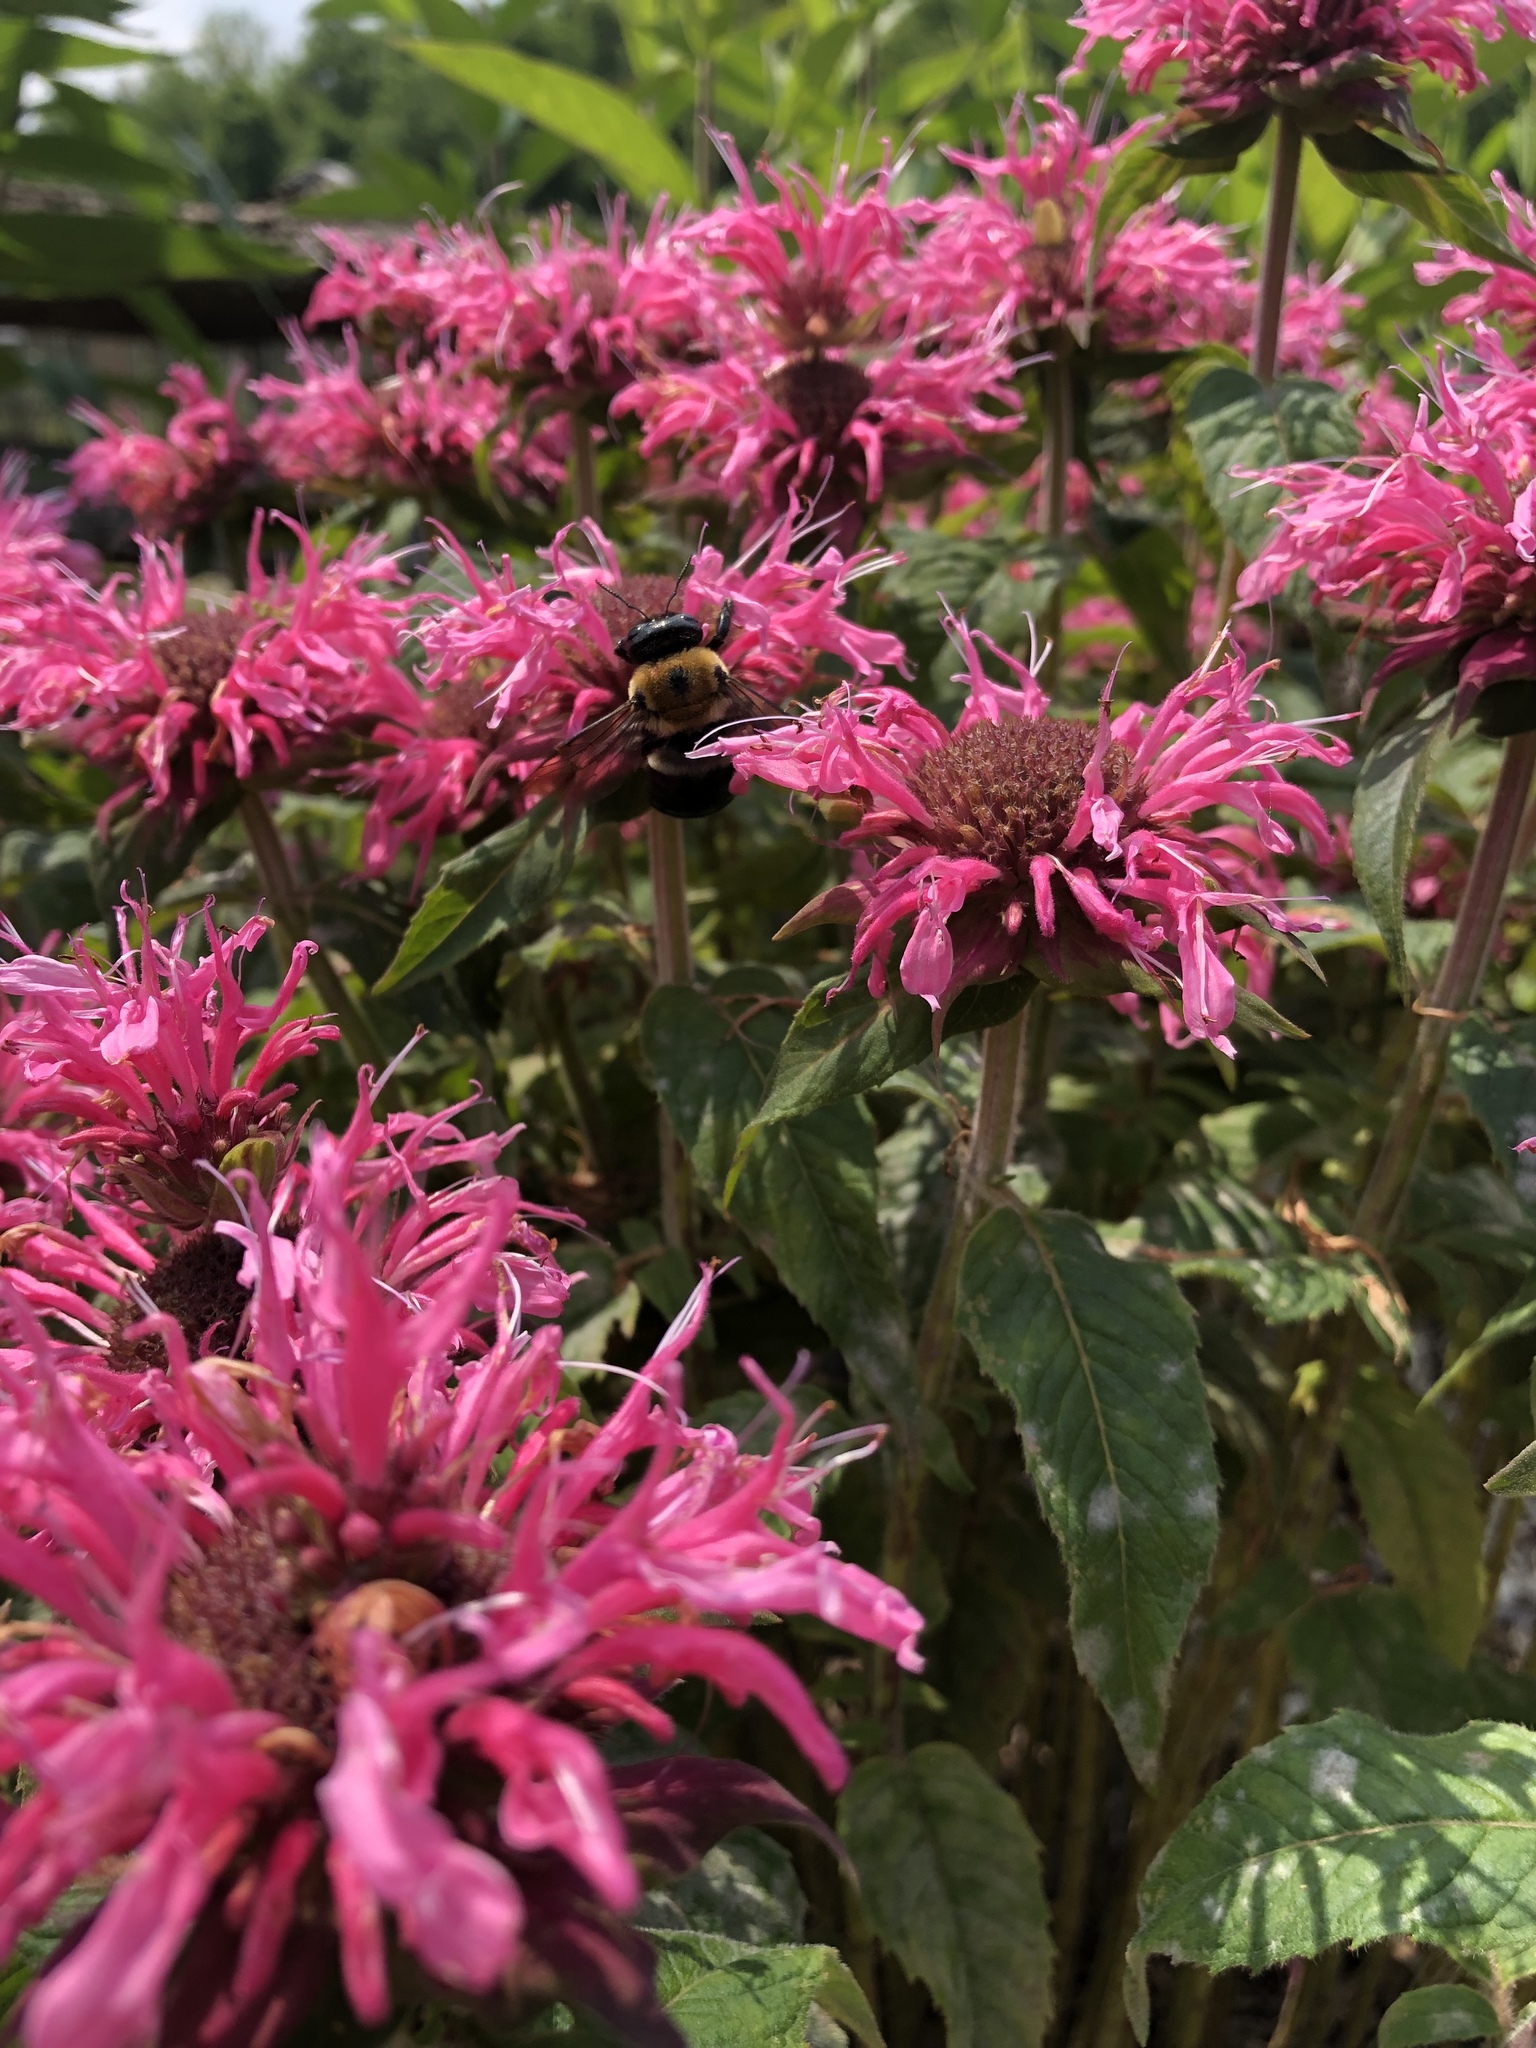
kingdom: Animalia
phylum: Arthropoda
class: Insecta
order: Hymenoptera
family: Apidae
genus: Xylocopa
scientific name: Xylocopa virginica
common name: Carpenter bee
